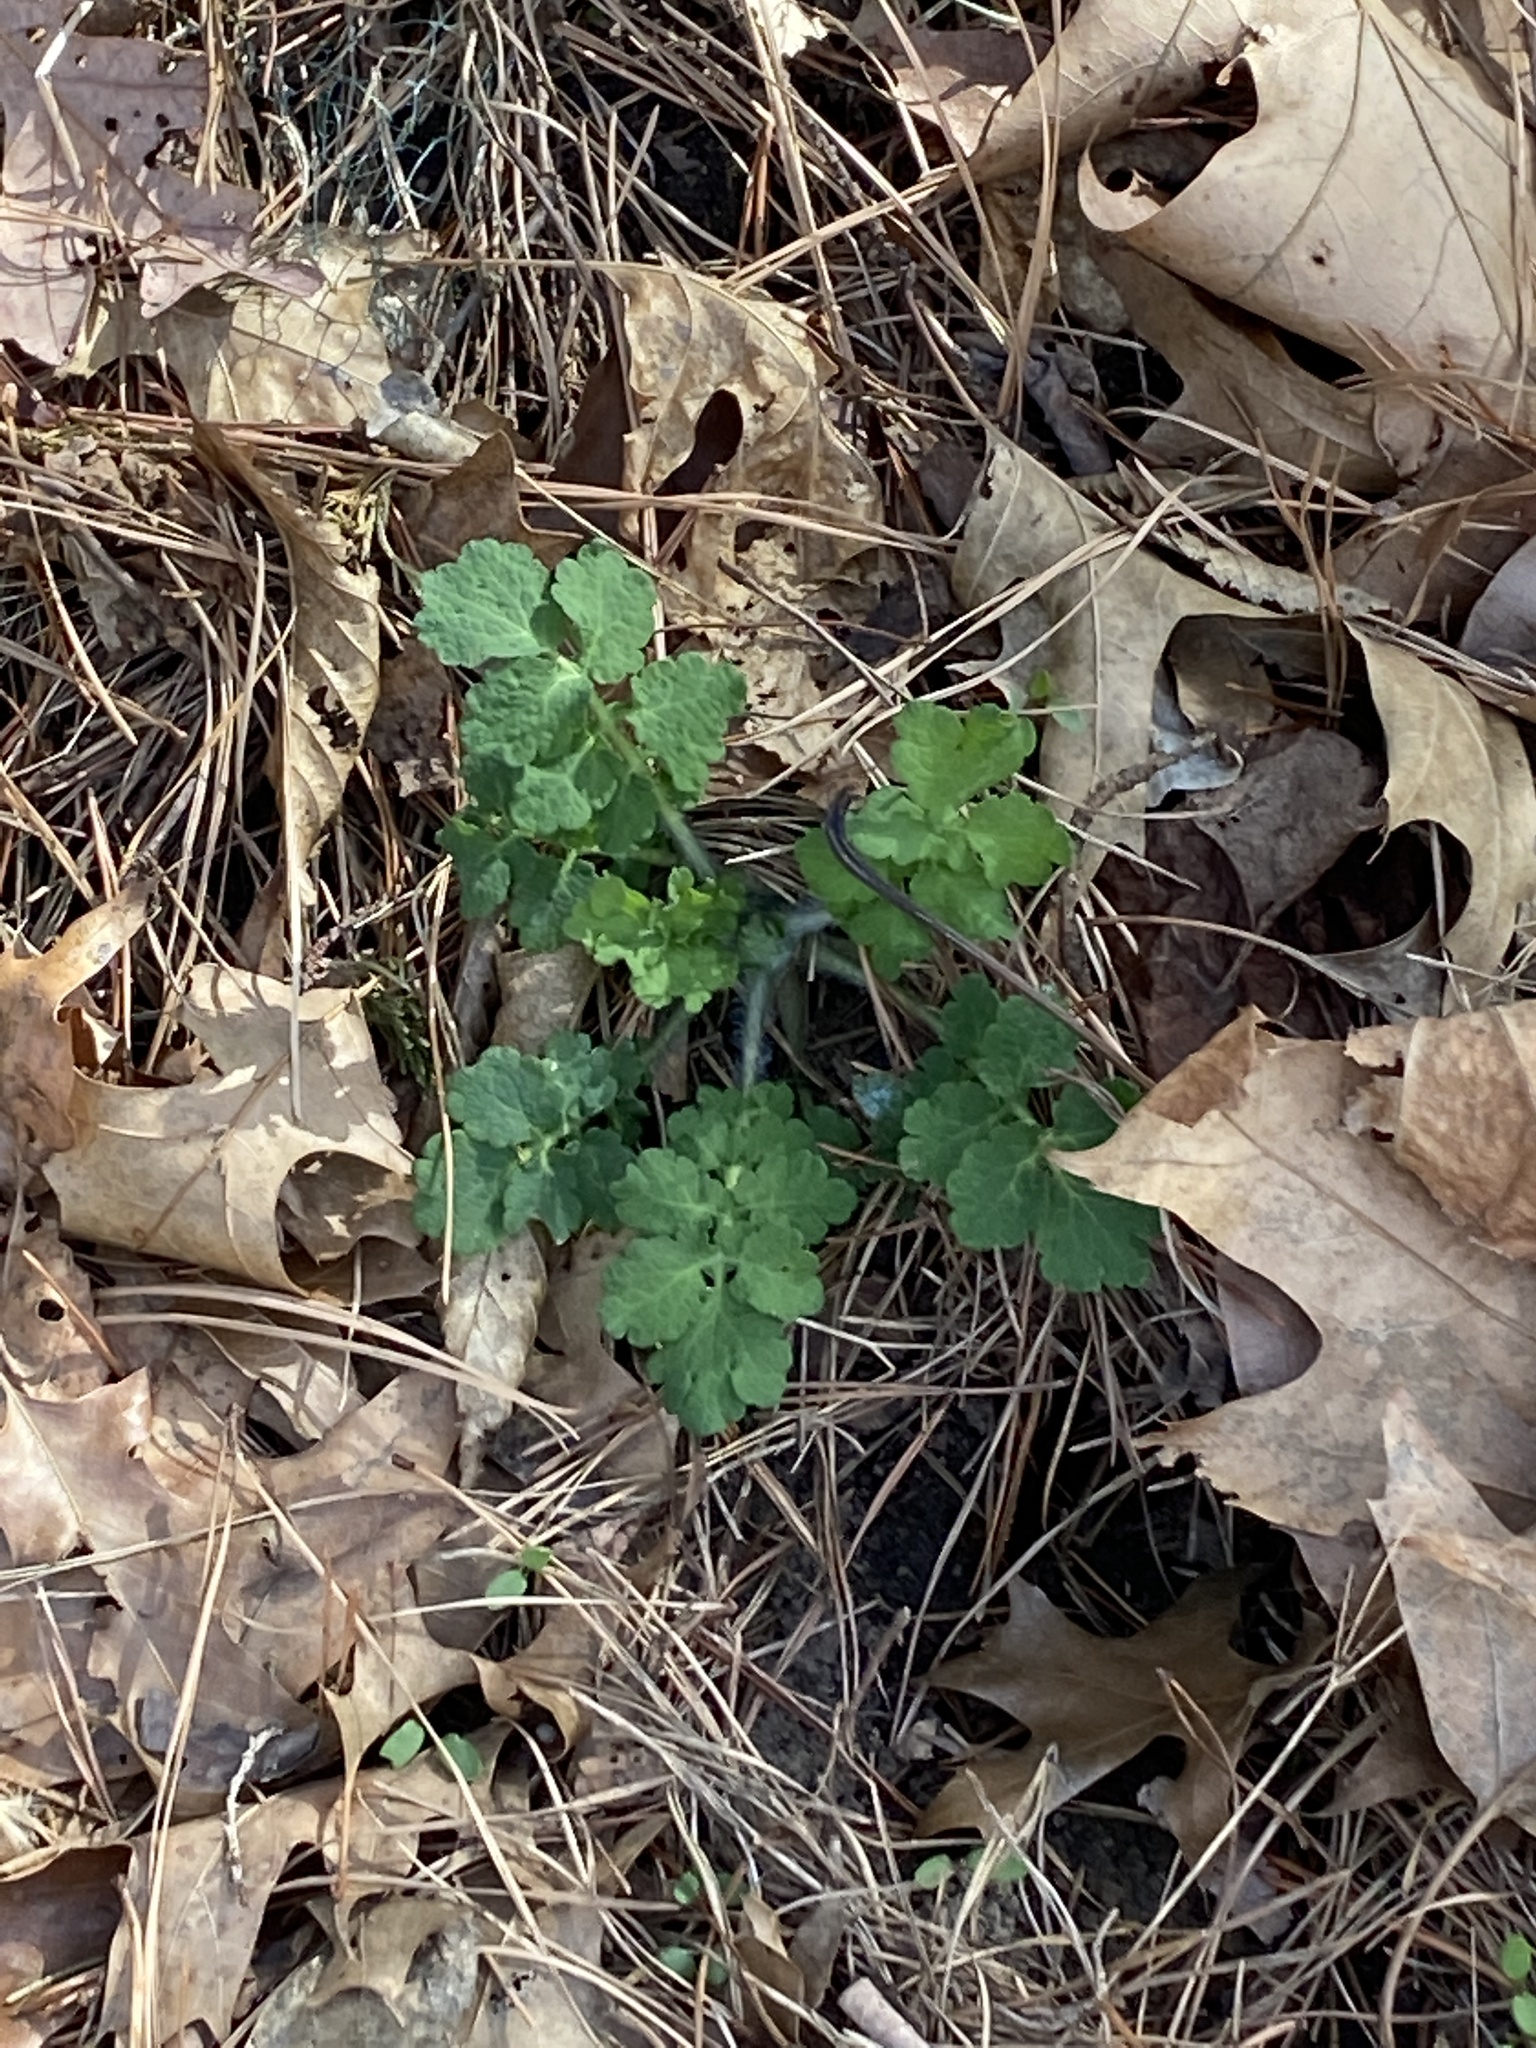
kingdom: Plantae
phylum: Tracheophyta
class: Magnoliopsida
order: Ranunculales
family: Papaveraceae
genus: Chelidonium
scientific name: Chelidonium majus
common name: Greater celandine
